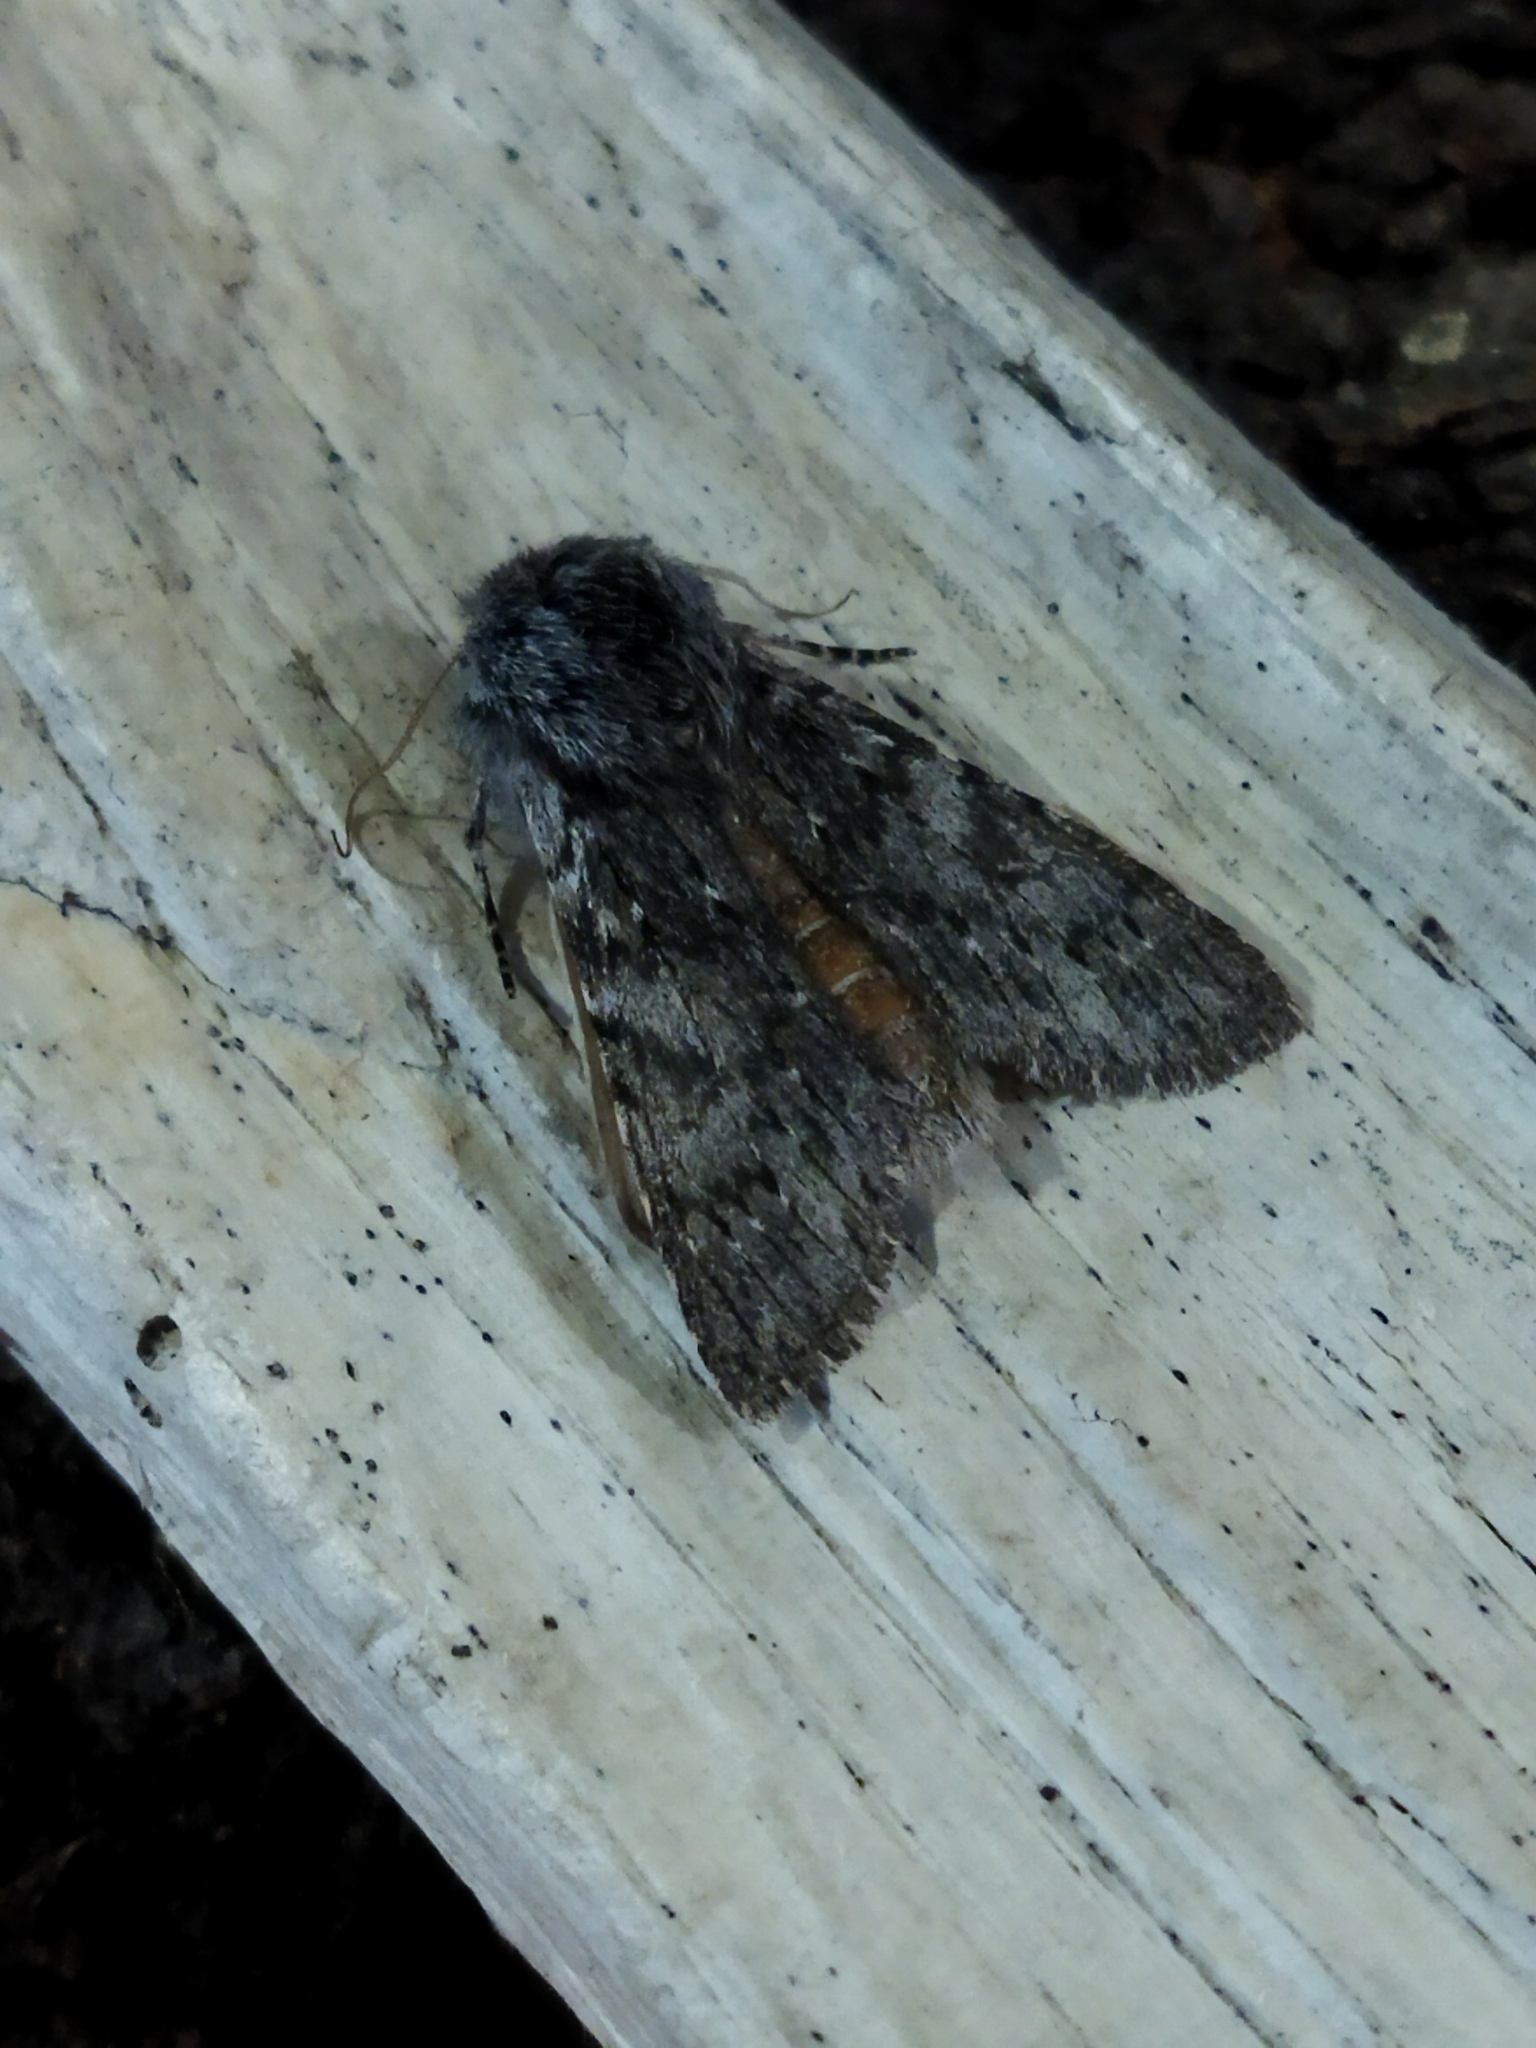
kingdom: Animalia
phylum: Arthropoda
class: Insecta
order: Lepidoptera
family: Notodontidae
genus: Dicranura
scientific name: Dicranura ulmi
